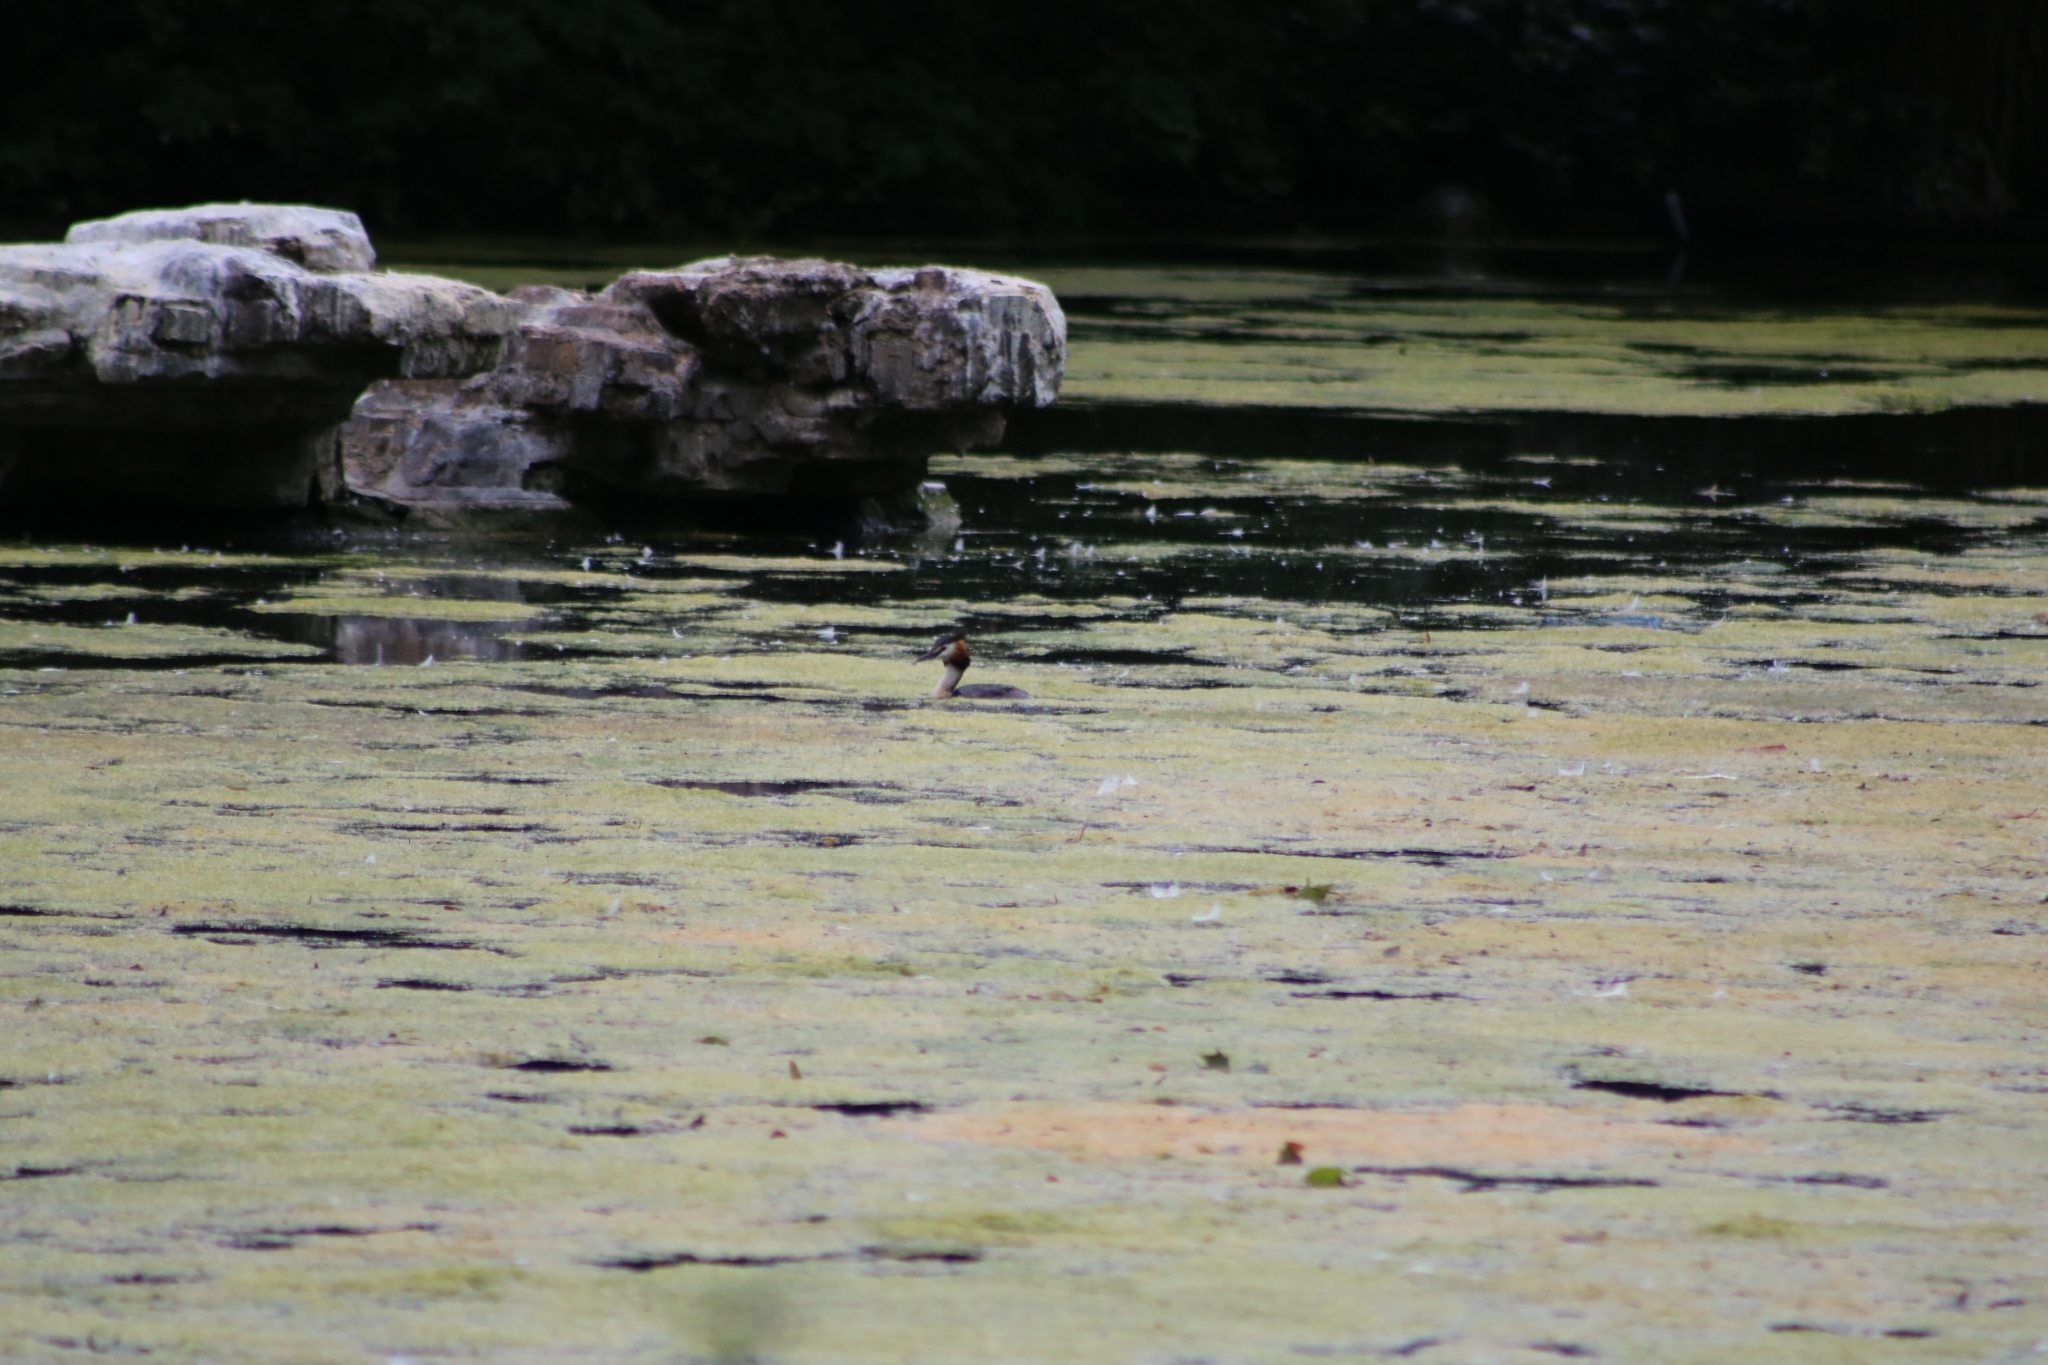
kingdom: Animalia
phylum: Chordata
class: Aves
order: Podicipediformes
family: Podicipedidae
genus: Podiceps
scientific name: Podiceps cristatus
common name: Great crested grebe
